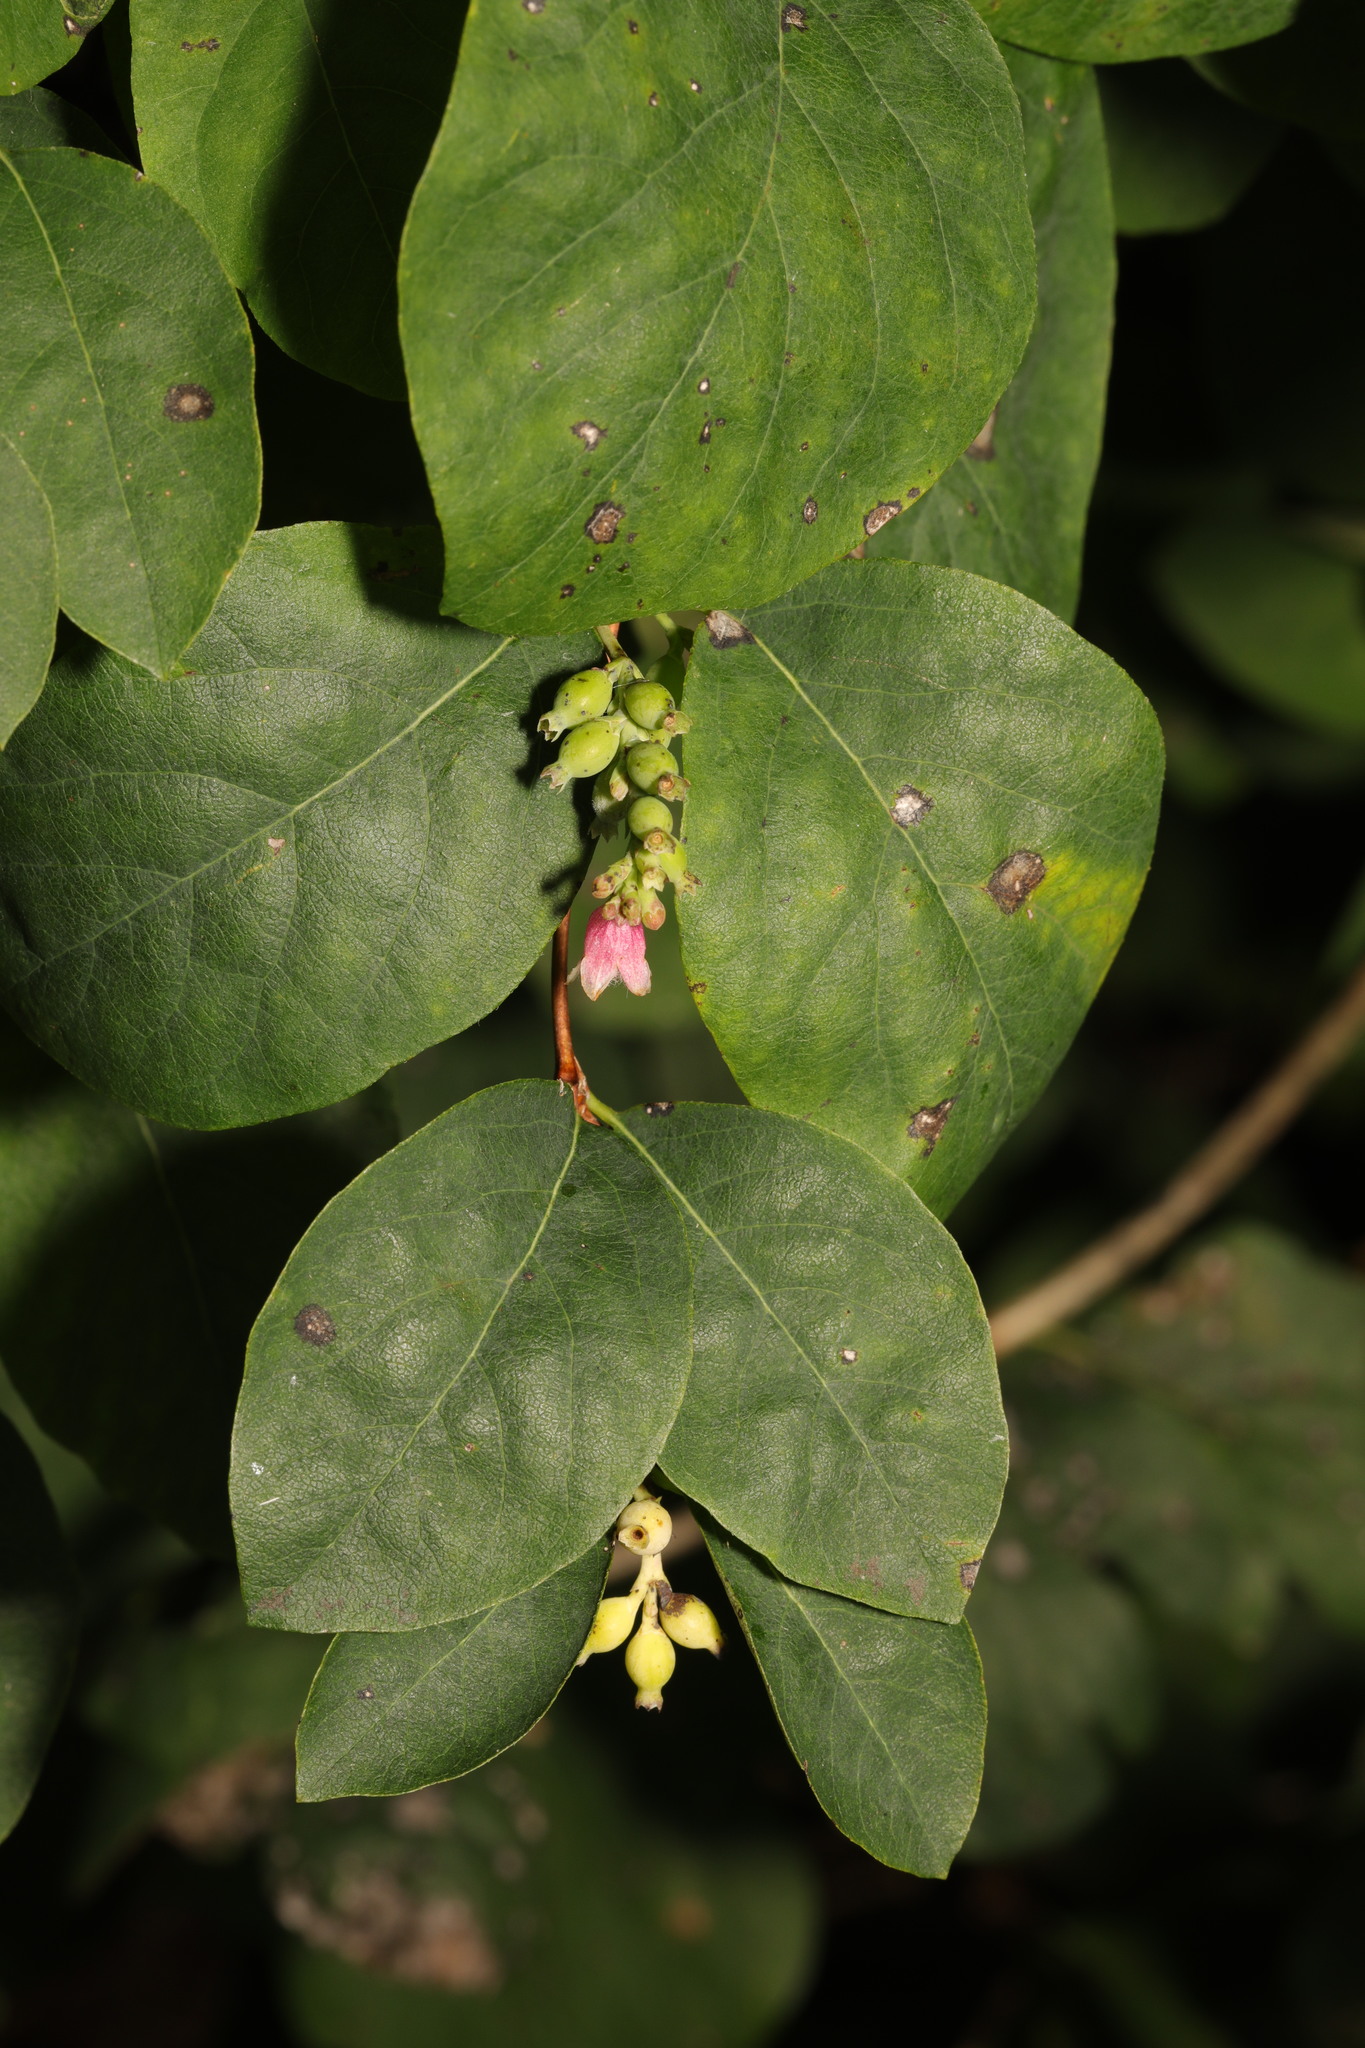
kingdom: Plantae
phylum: Tracheophyta
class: Magnoliopsida
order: Dipsacales
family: Caprifoliaceae
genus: Symphoricarpos
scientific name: Symphoricarpos albus
